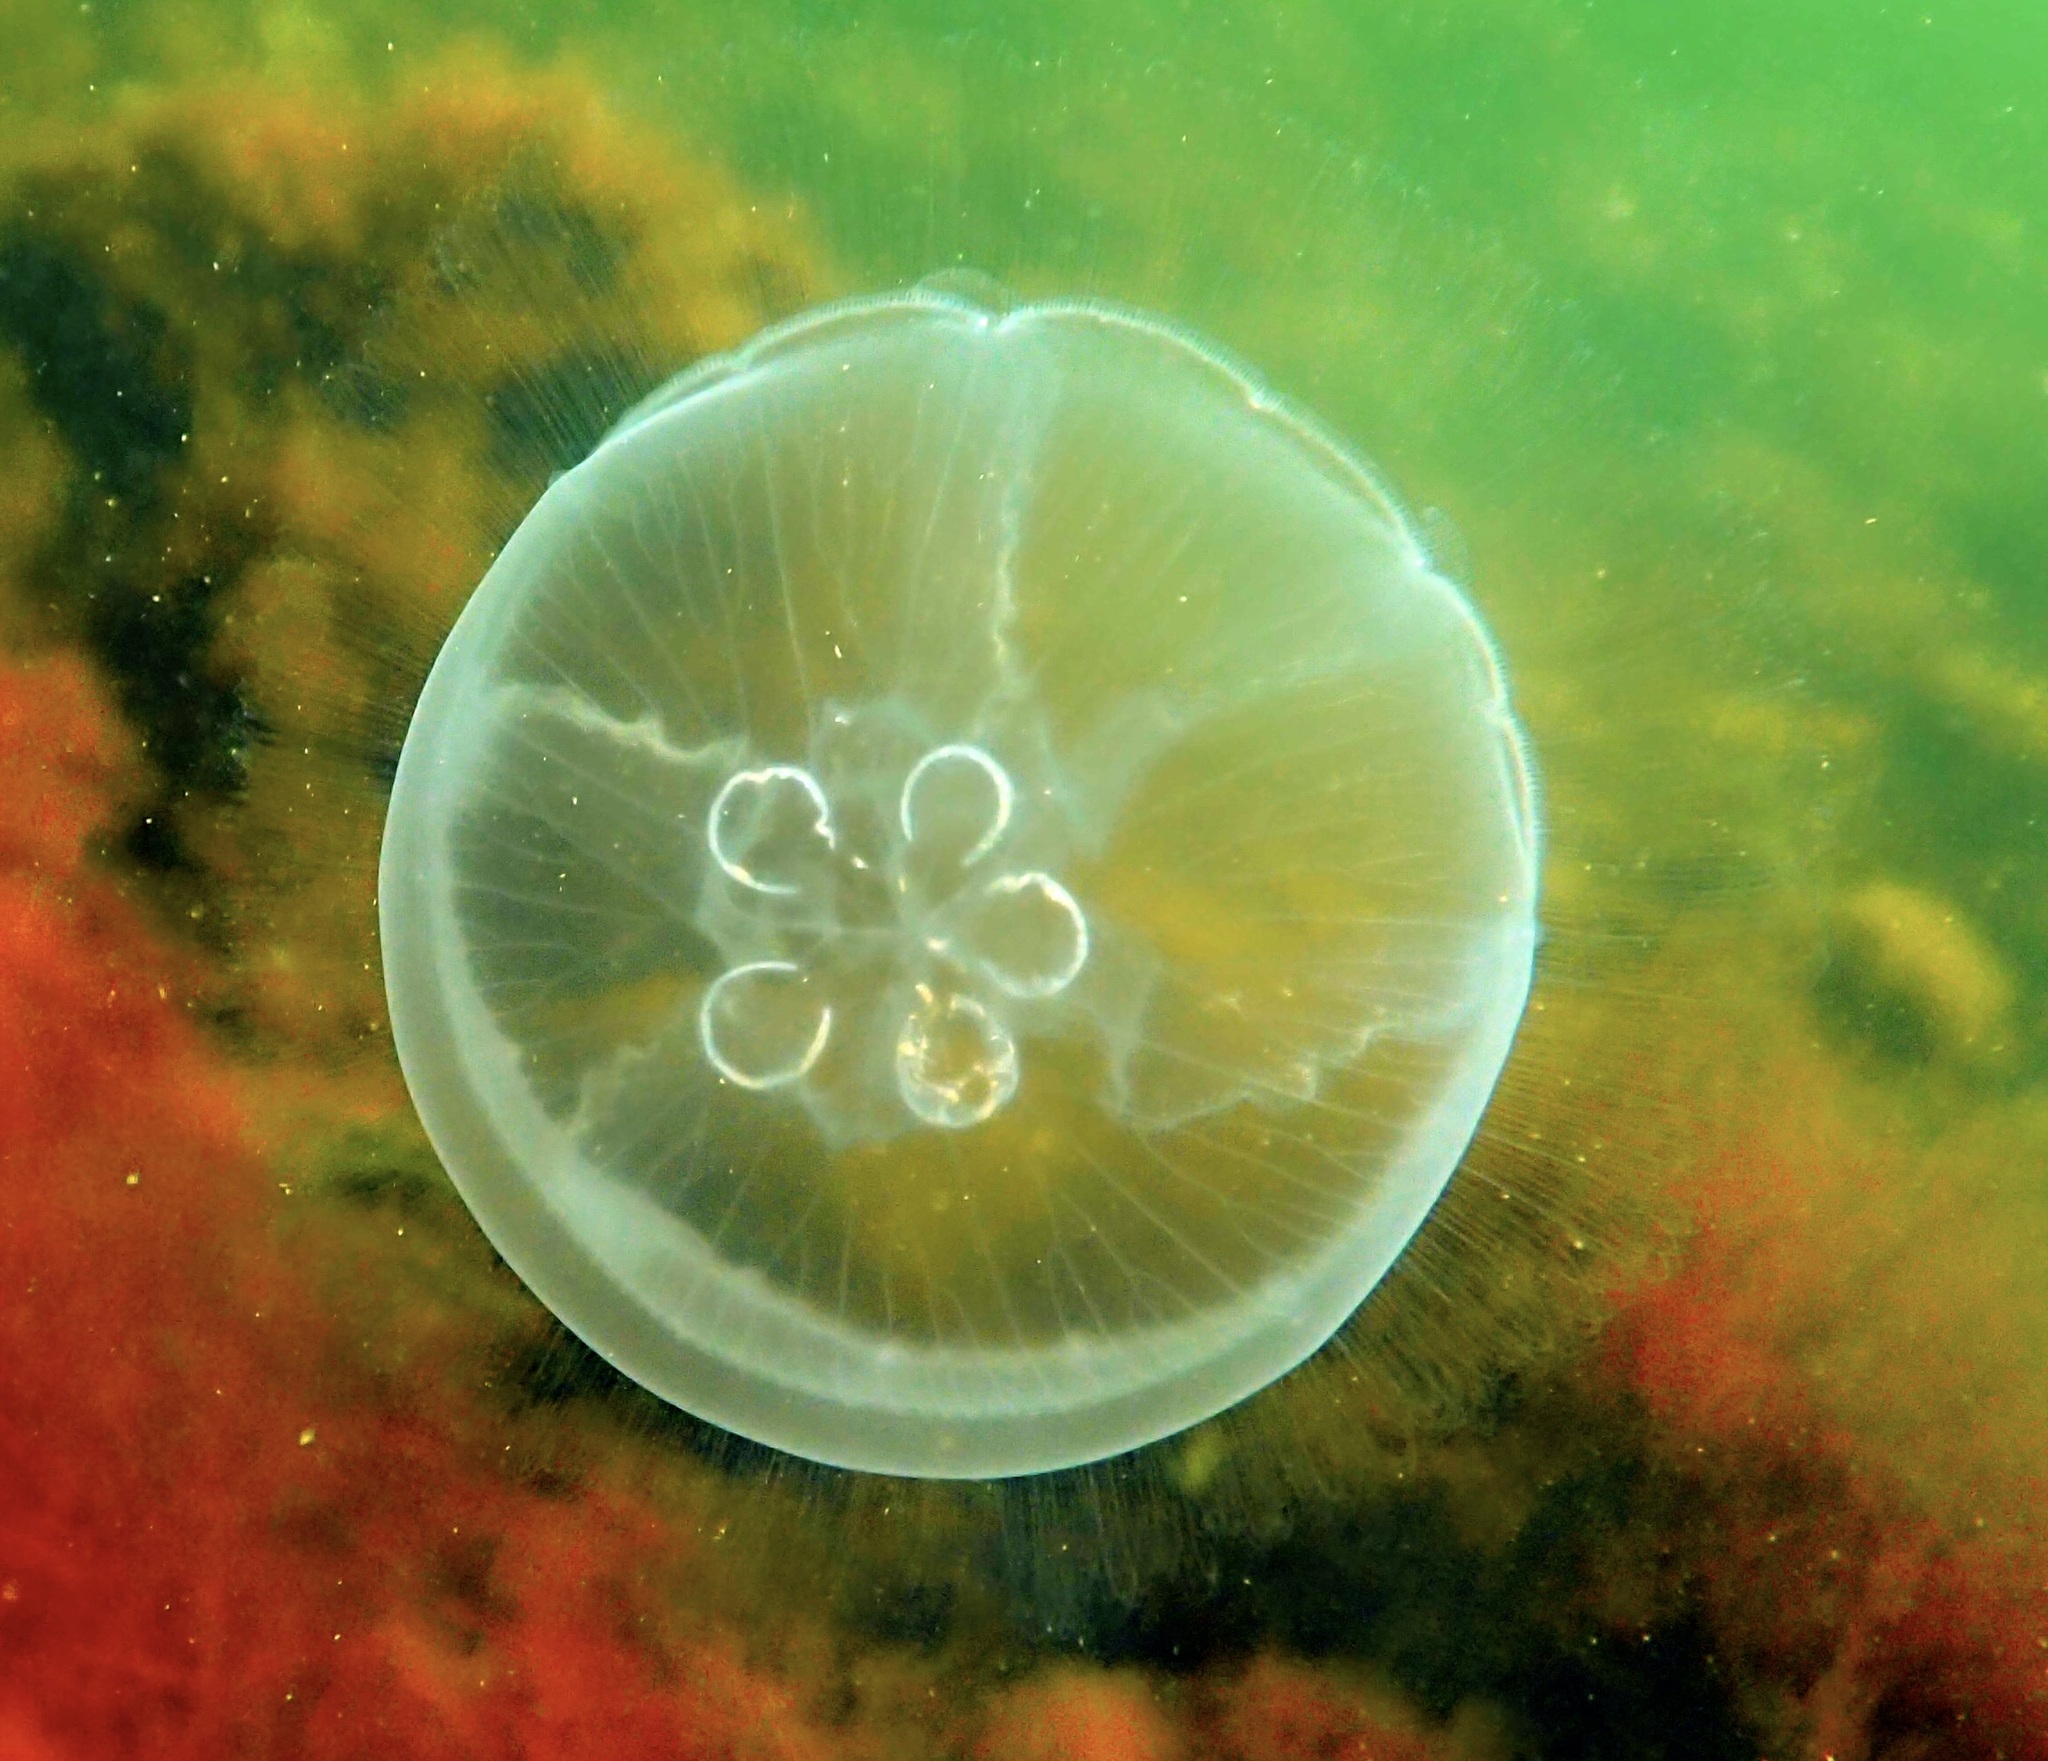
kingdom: Animalia
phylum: Cnidaria
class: Scyphozoa
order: Semaeostomeae
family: Ulmaridae
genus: Aurelia
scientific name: Aurelia aurita
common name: Moon jellyfish
